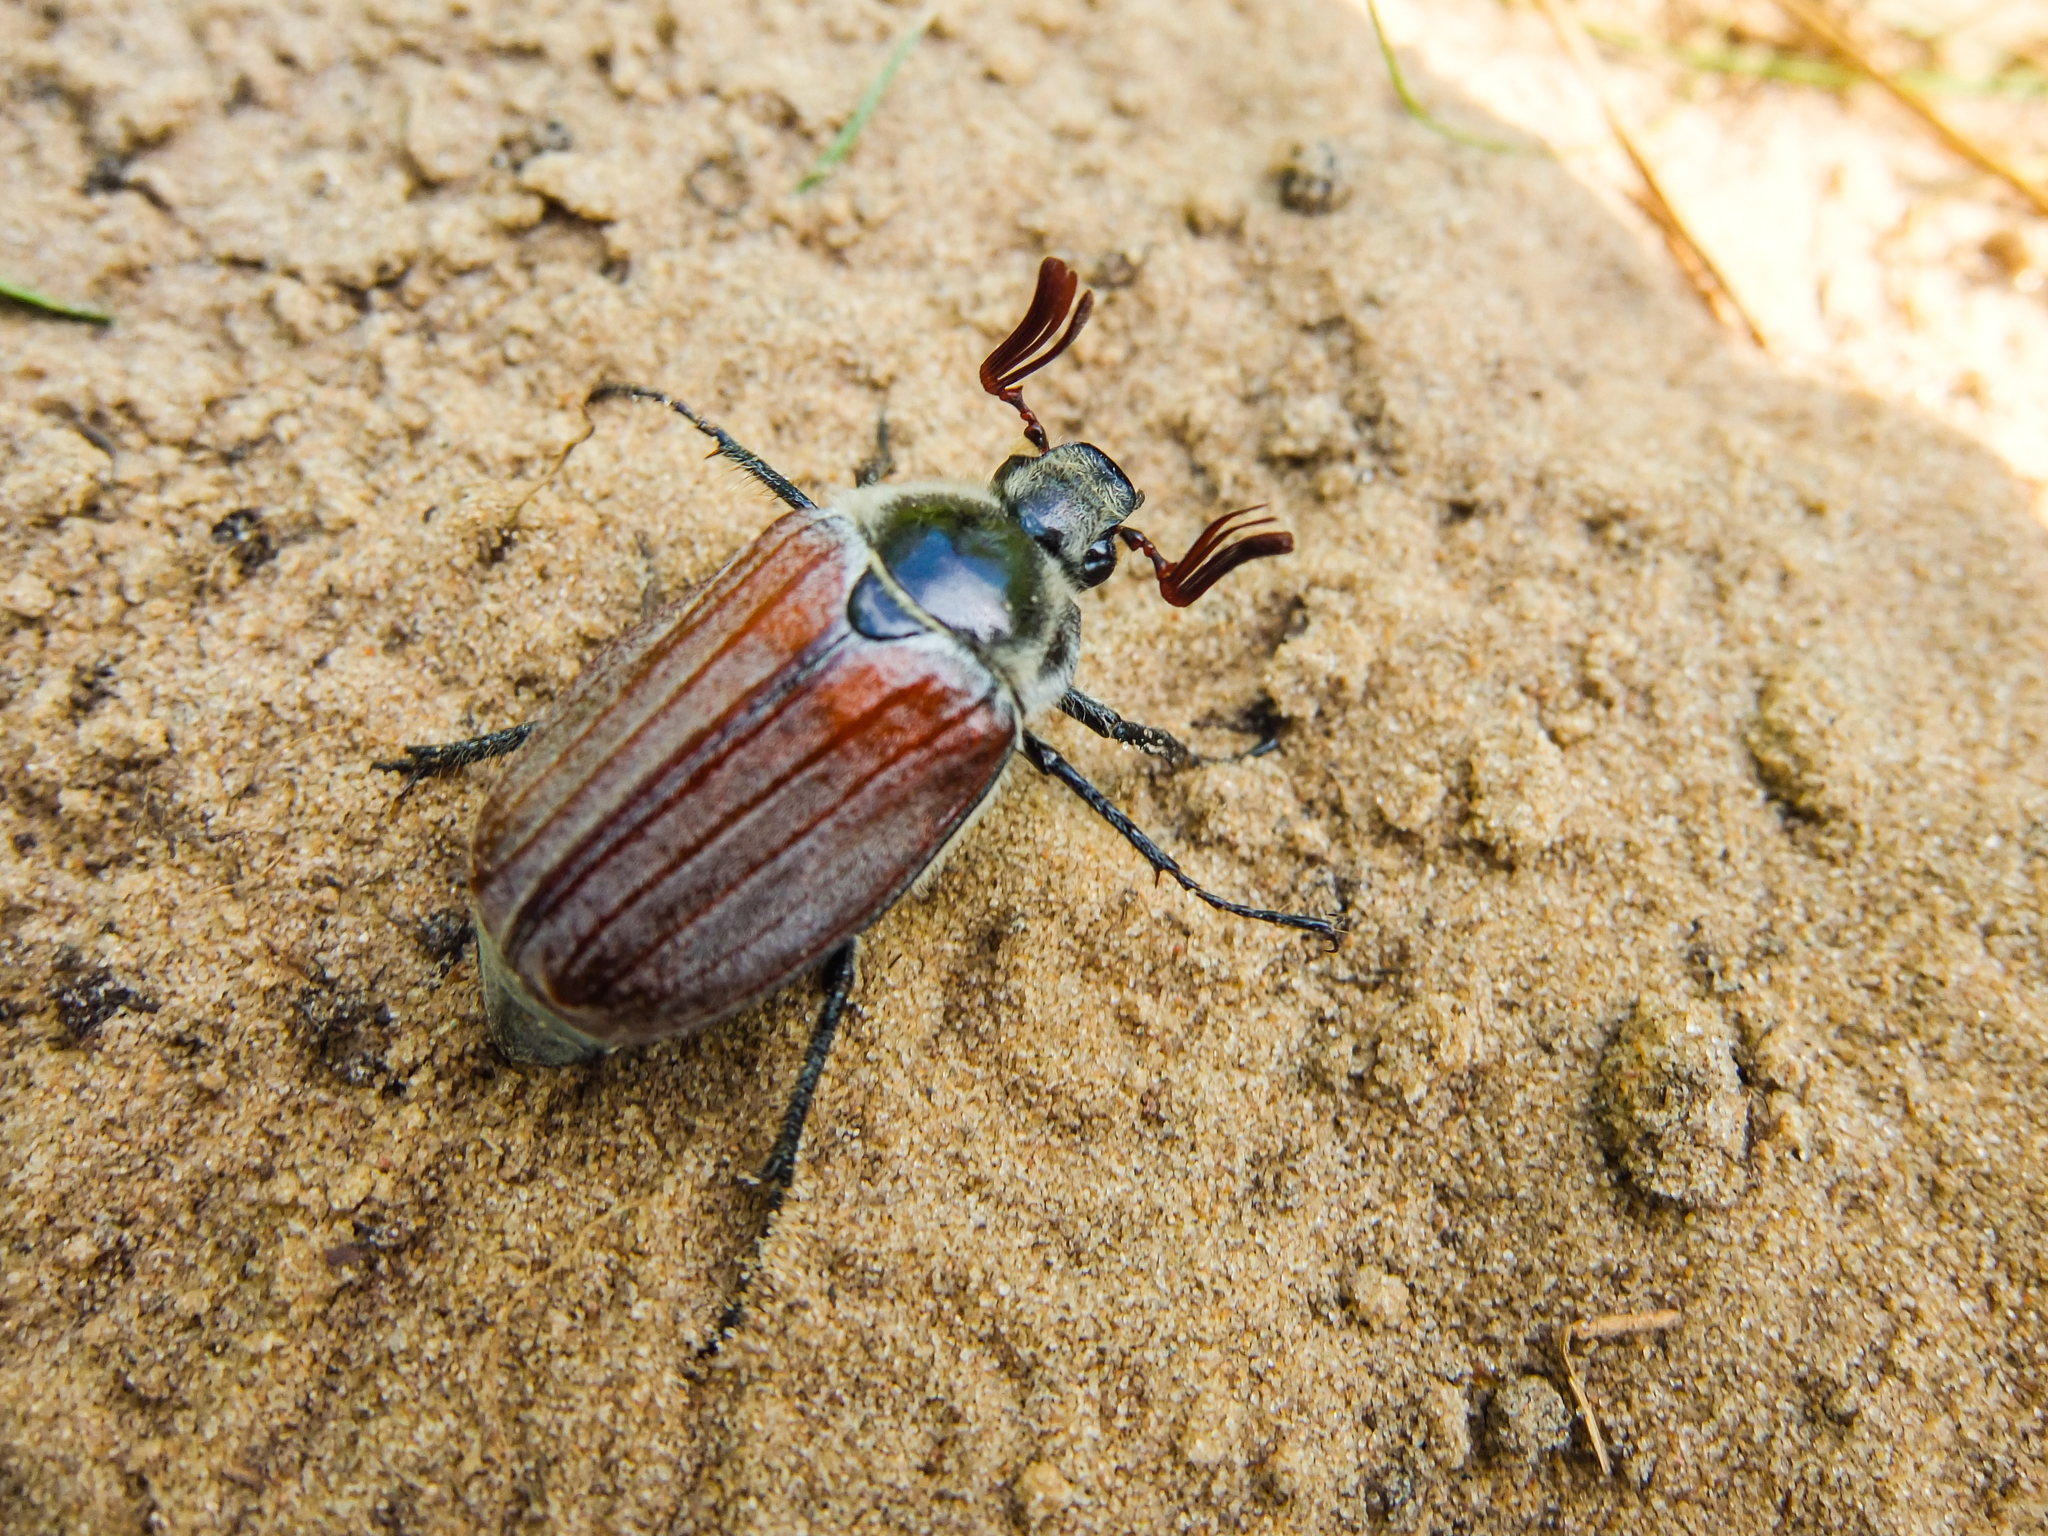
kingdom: Animalia
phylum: Arthropoda
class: Insecta
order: Coleoptera
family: Scarabaeidae
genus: Melolontha
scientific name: Melolontha hippocastani
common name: Chestnut cockchafer
